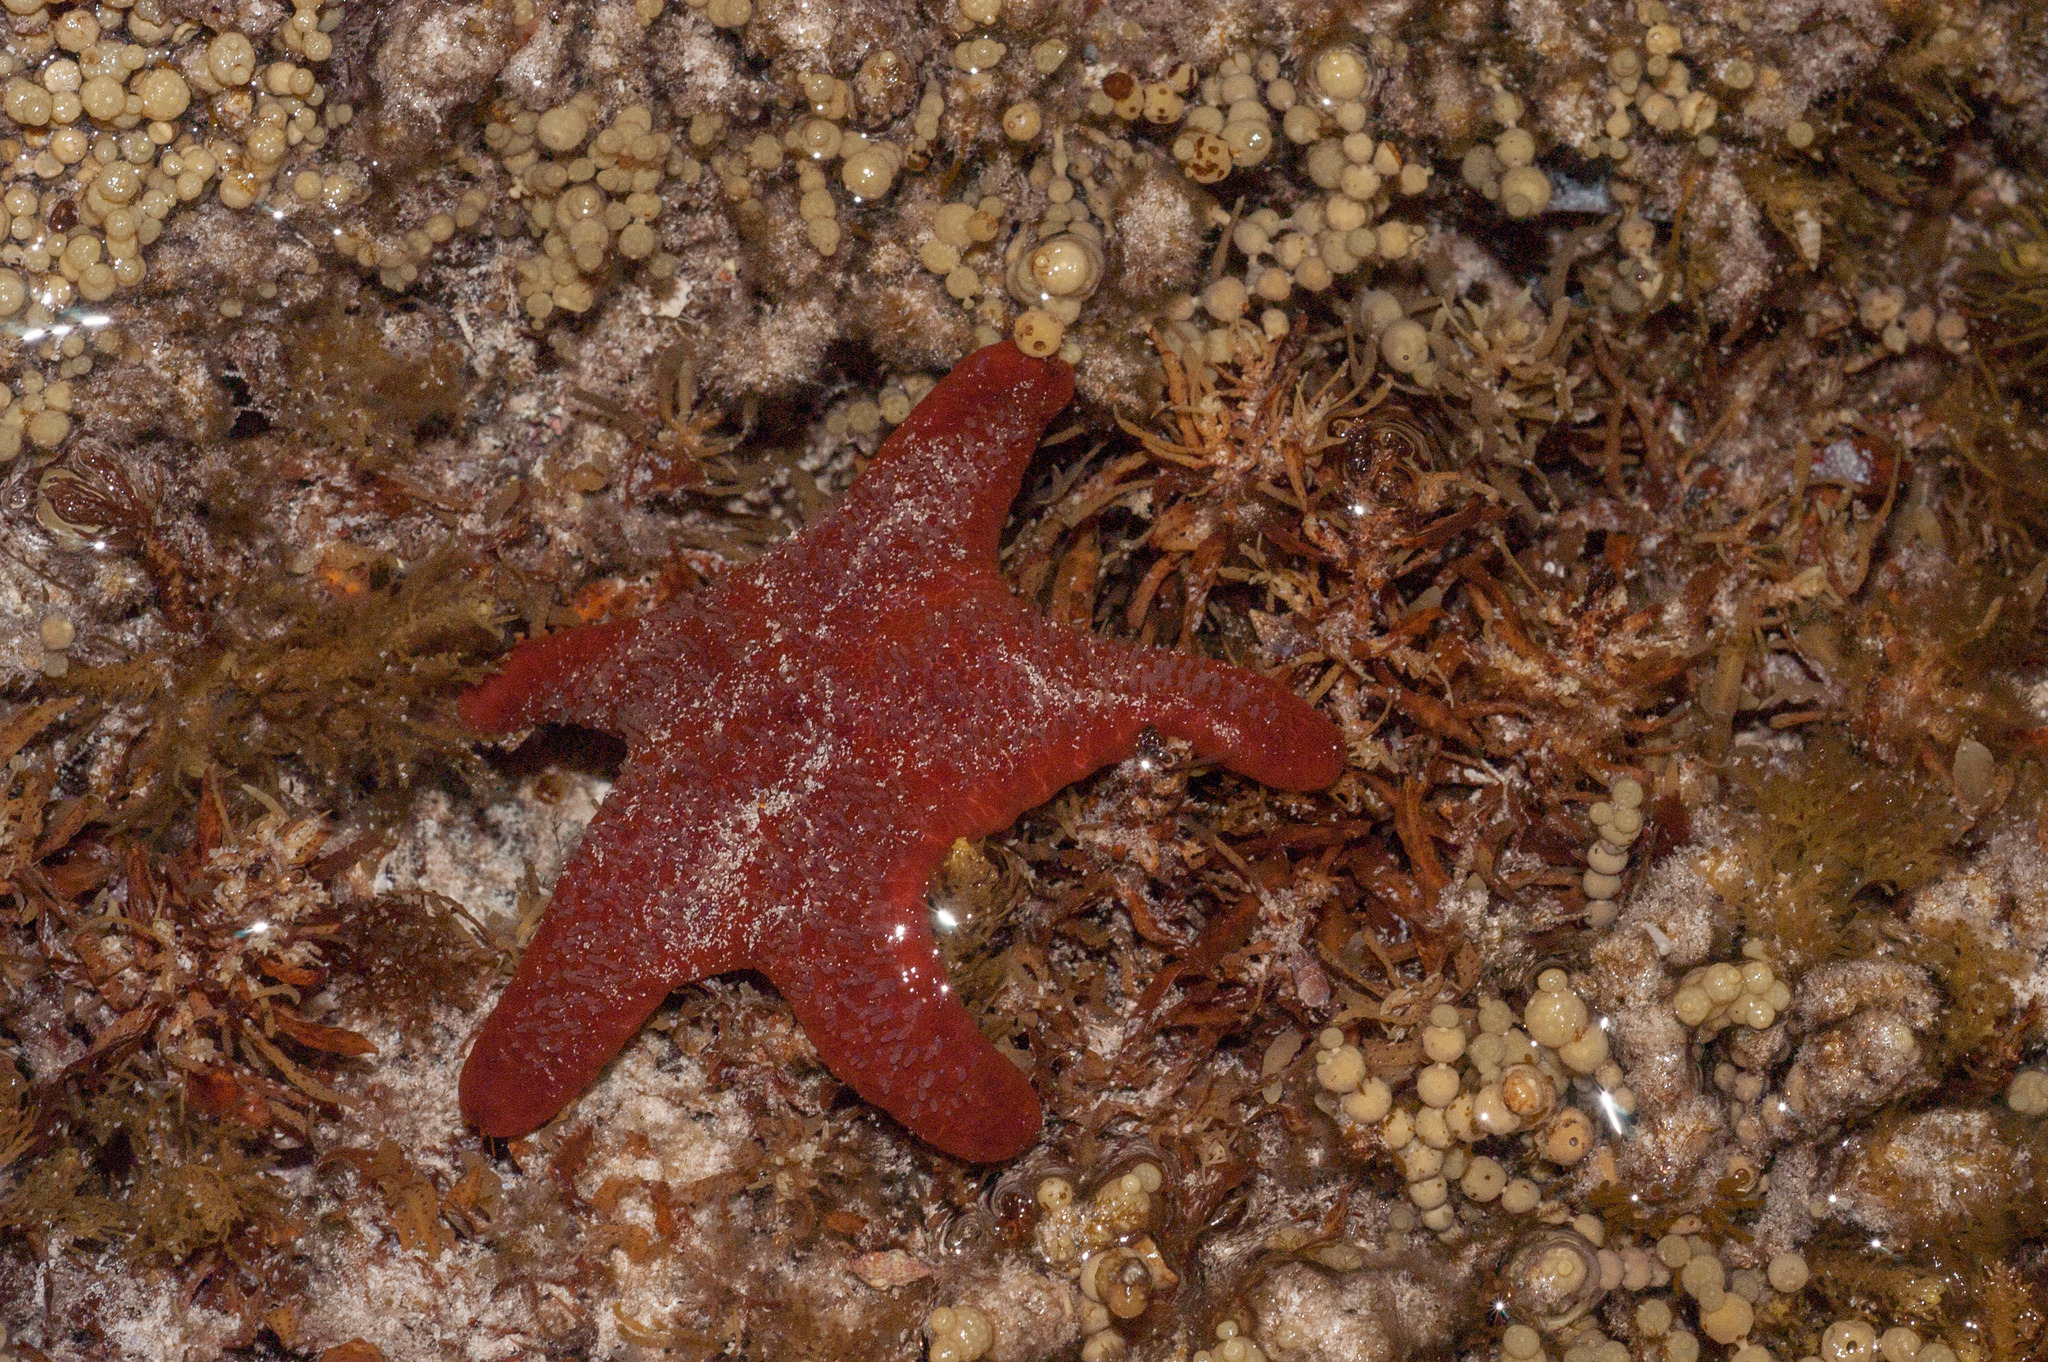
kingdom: Animalia
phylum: Echinodermata
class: Asteroidea
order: Valvatida
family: Asteropseidae
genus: Petricia
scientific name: Petricia vernicina
